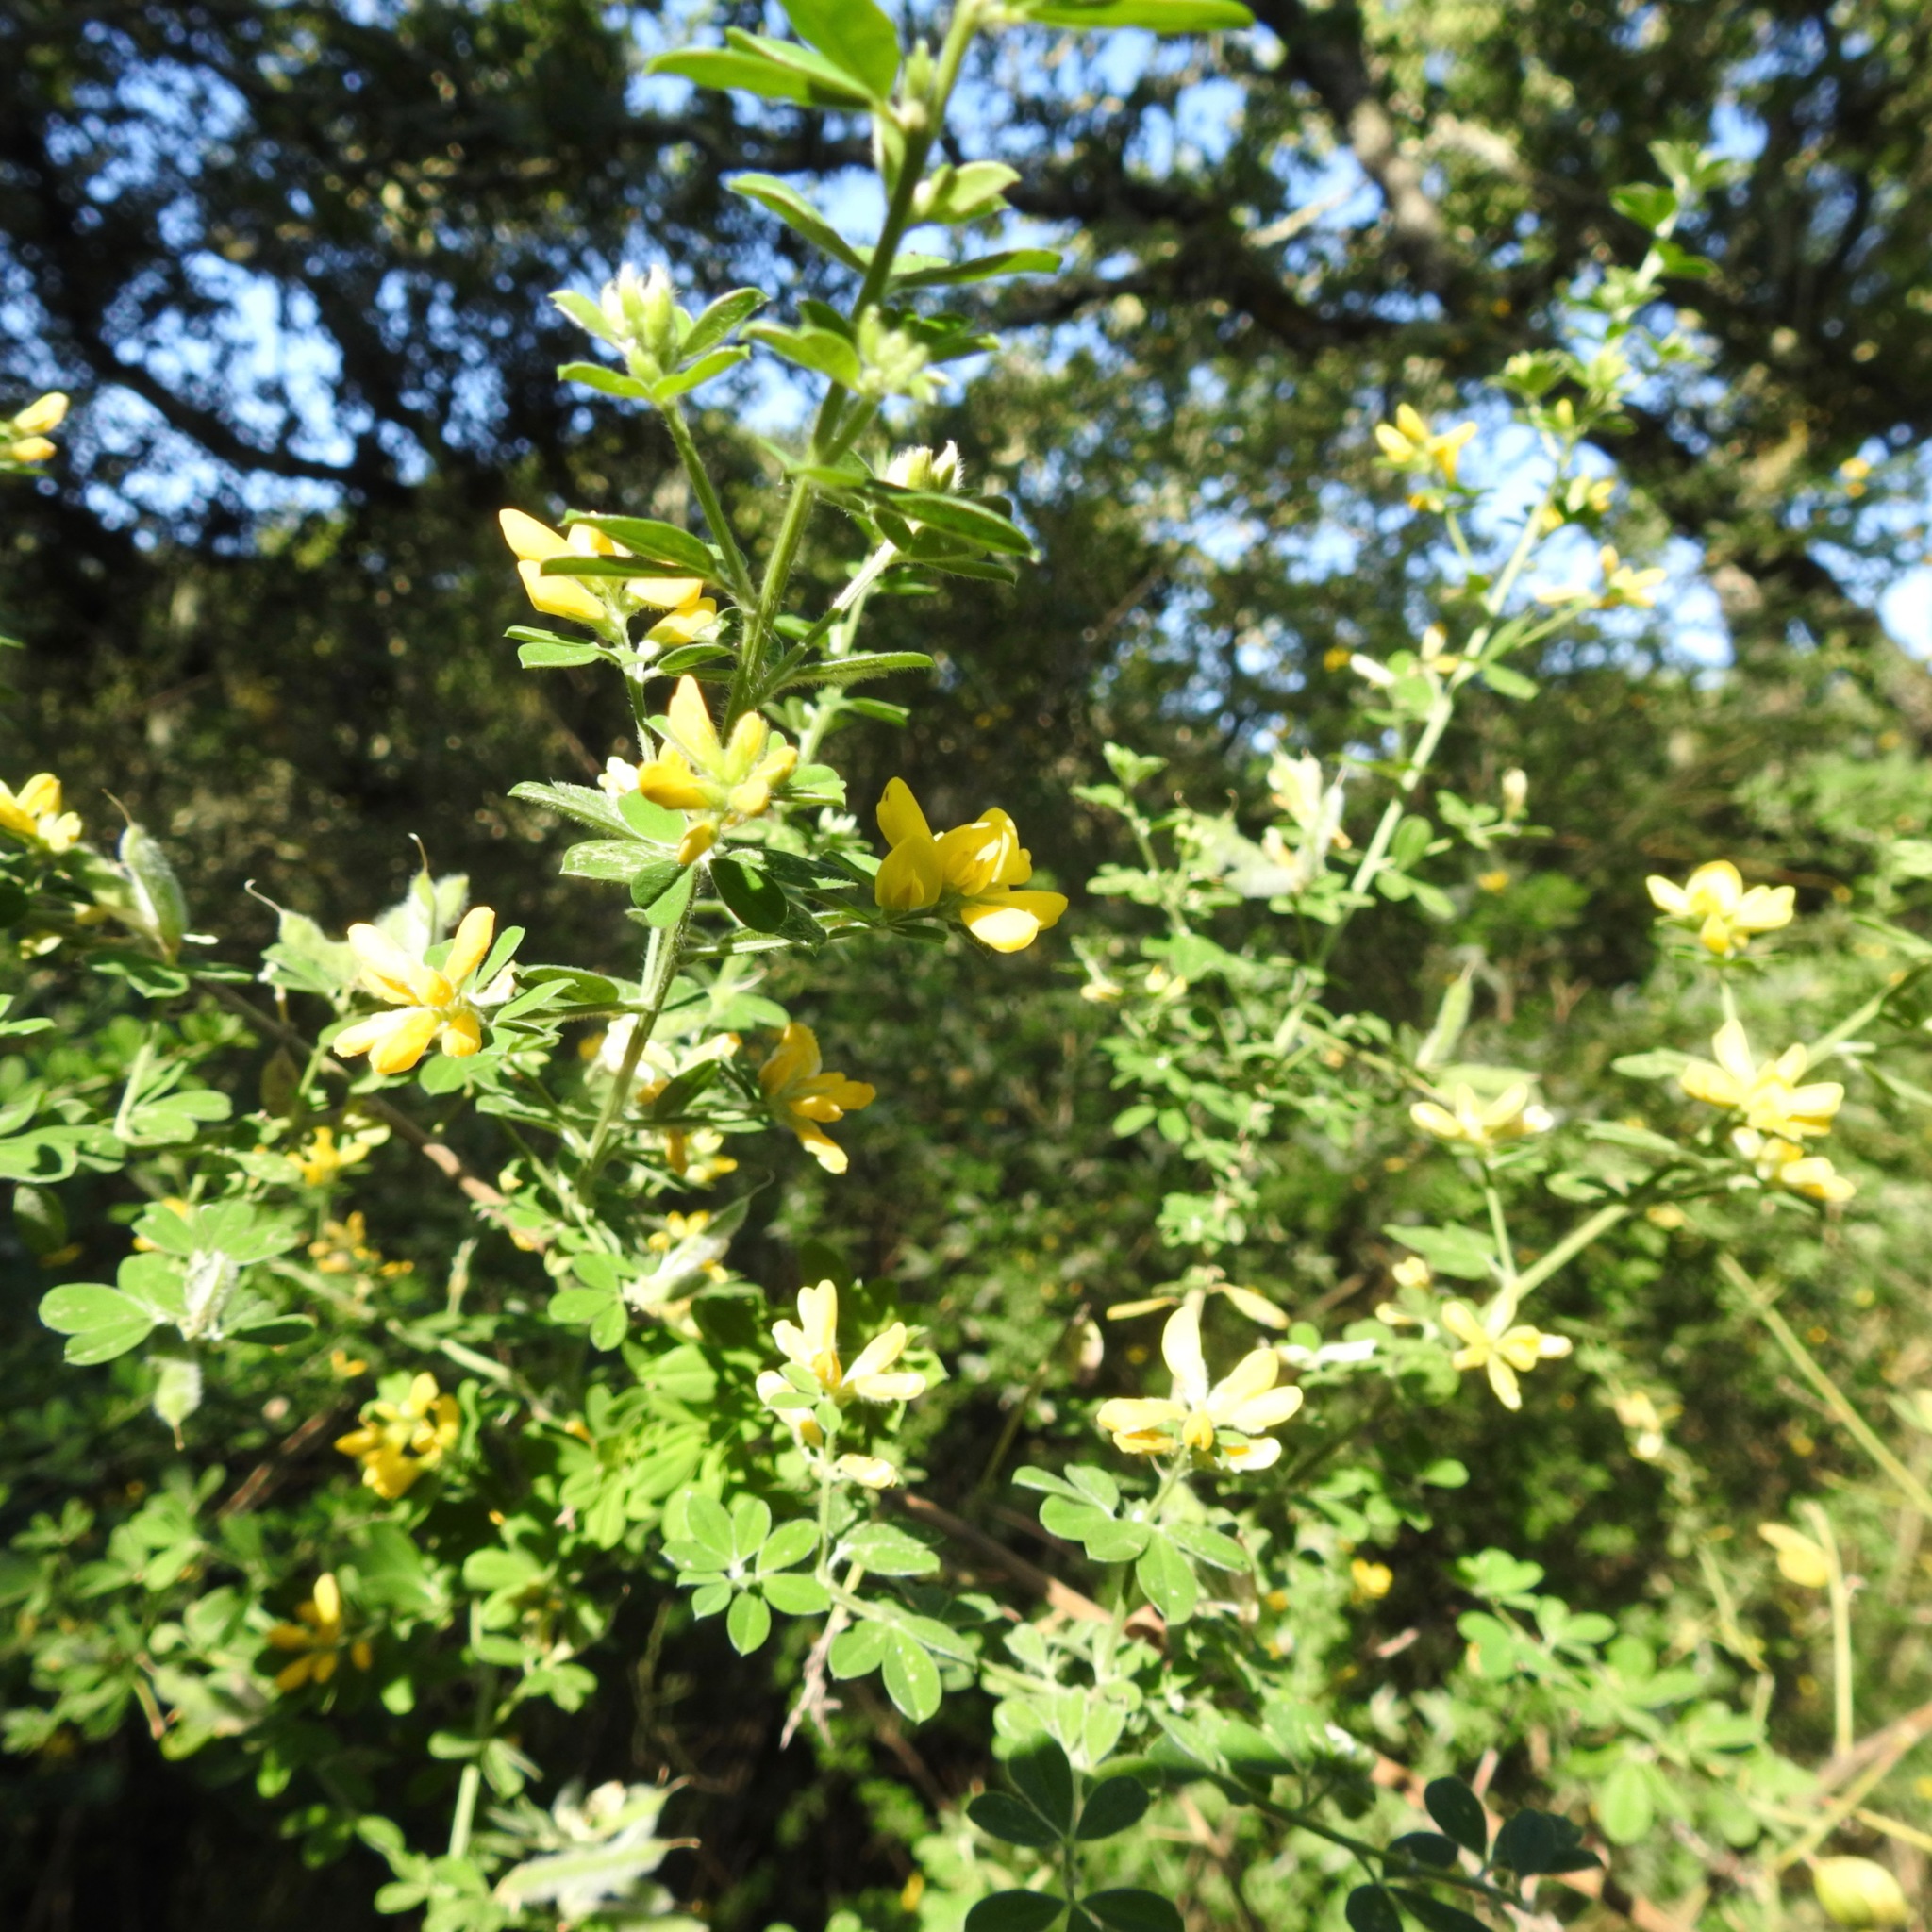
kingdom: Plantae
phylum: Tracheophyta
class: Magnoliopsida
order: Fabales
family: Fabaceae
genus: Genista
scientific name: Genista monspessulana
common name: Montpellier broom
